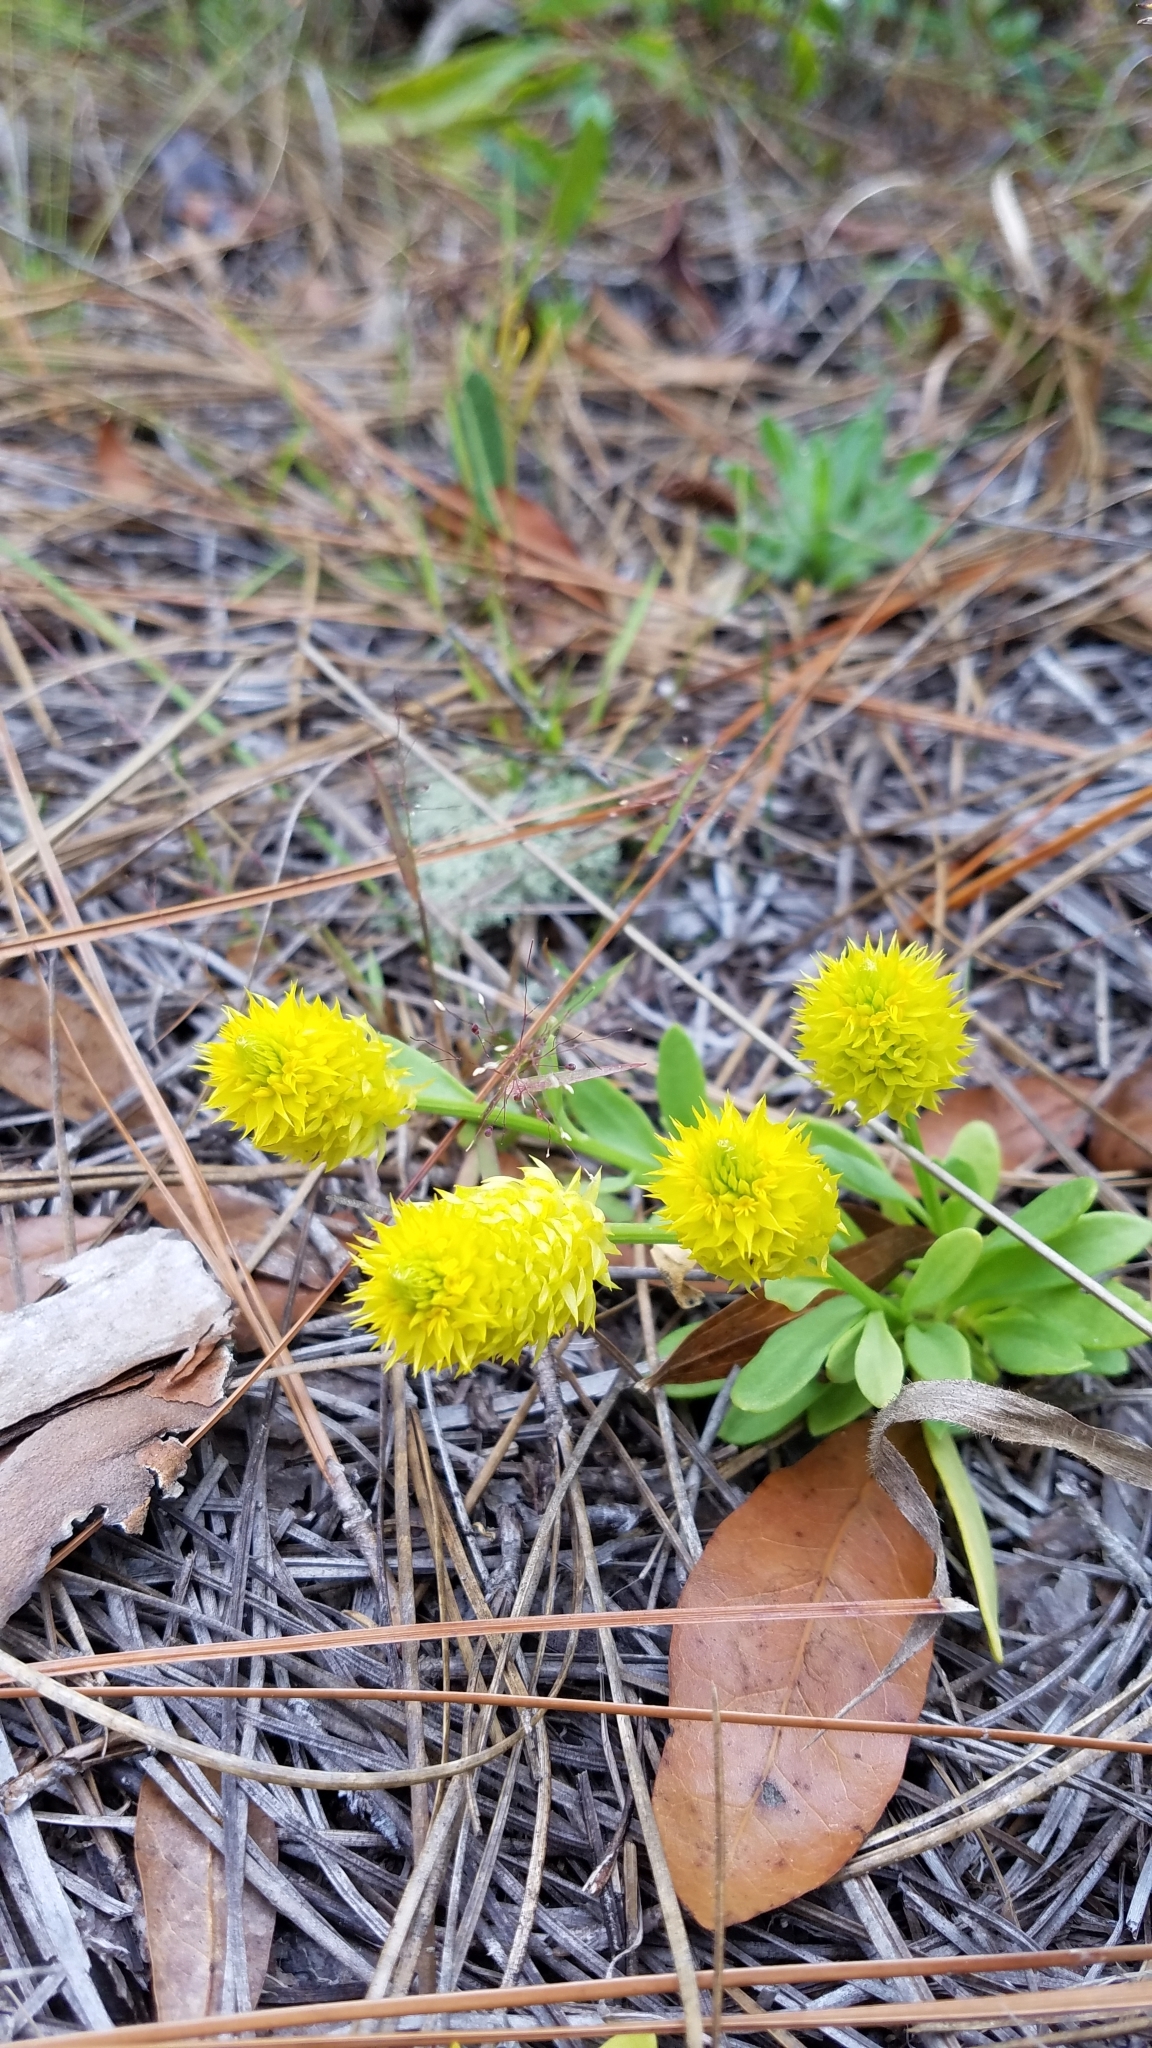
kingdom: Plantae
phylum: Tracheophyta
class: Magnoliopsida
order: Fabales
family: Polygalaceae
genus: Polygala
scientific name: Polygala nana
